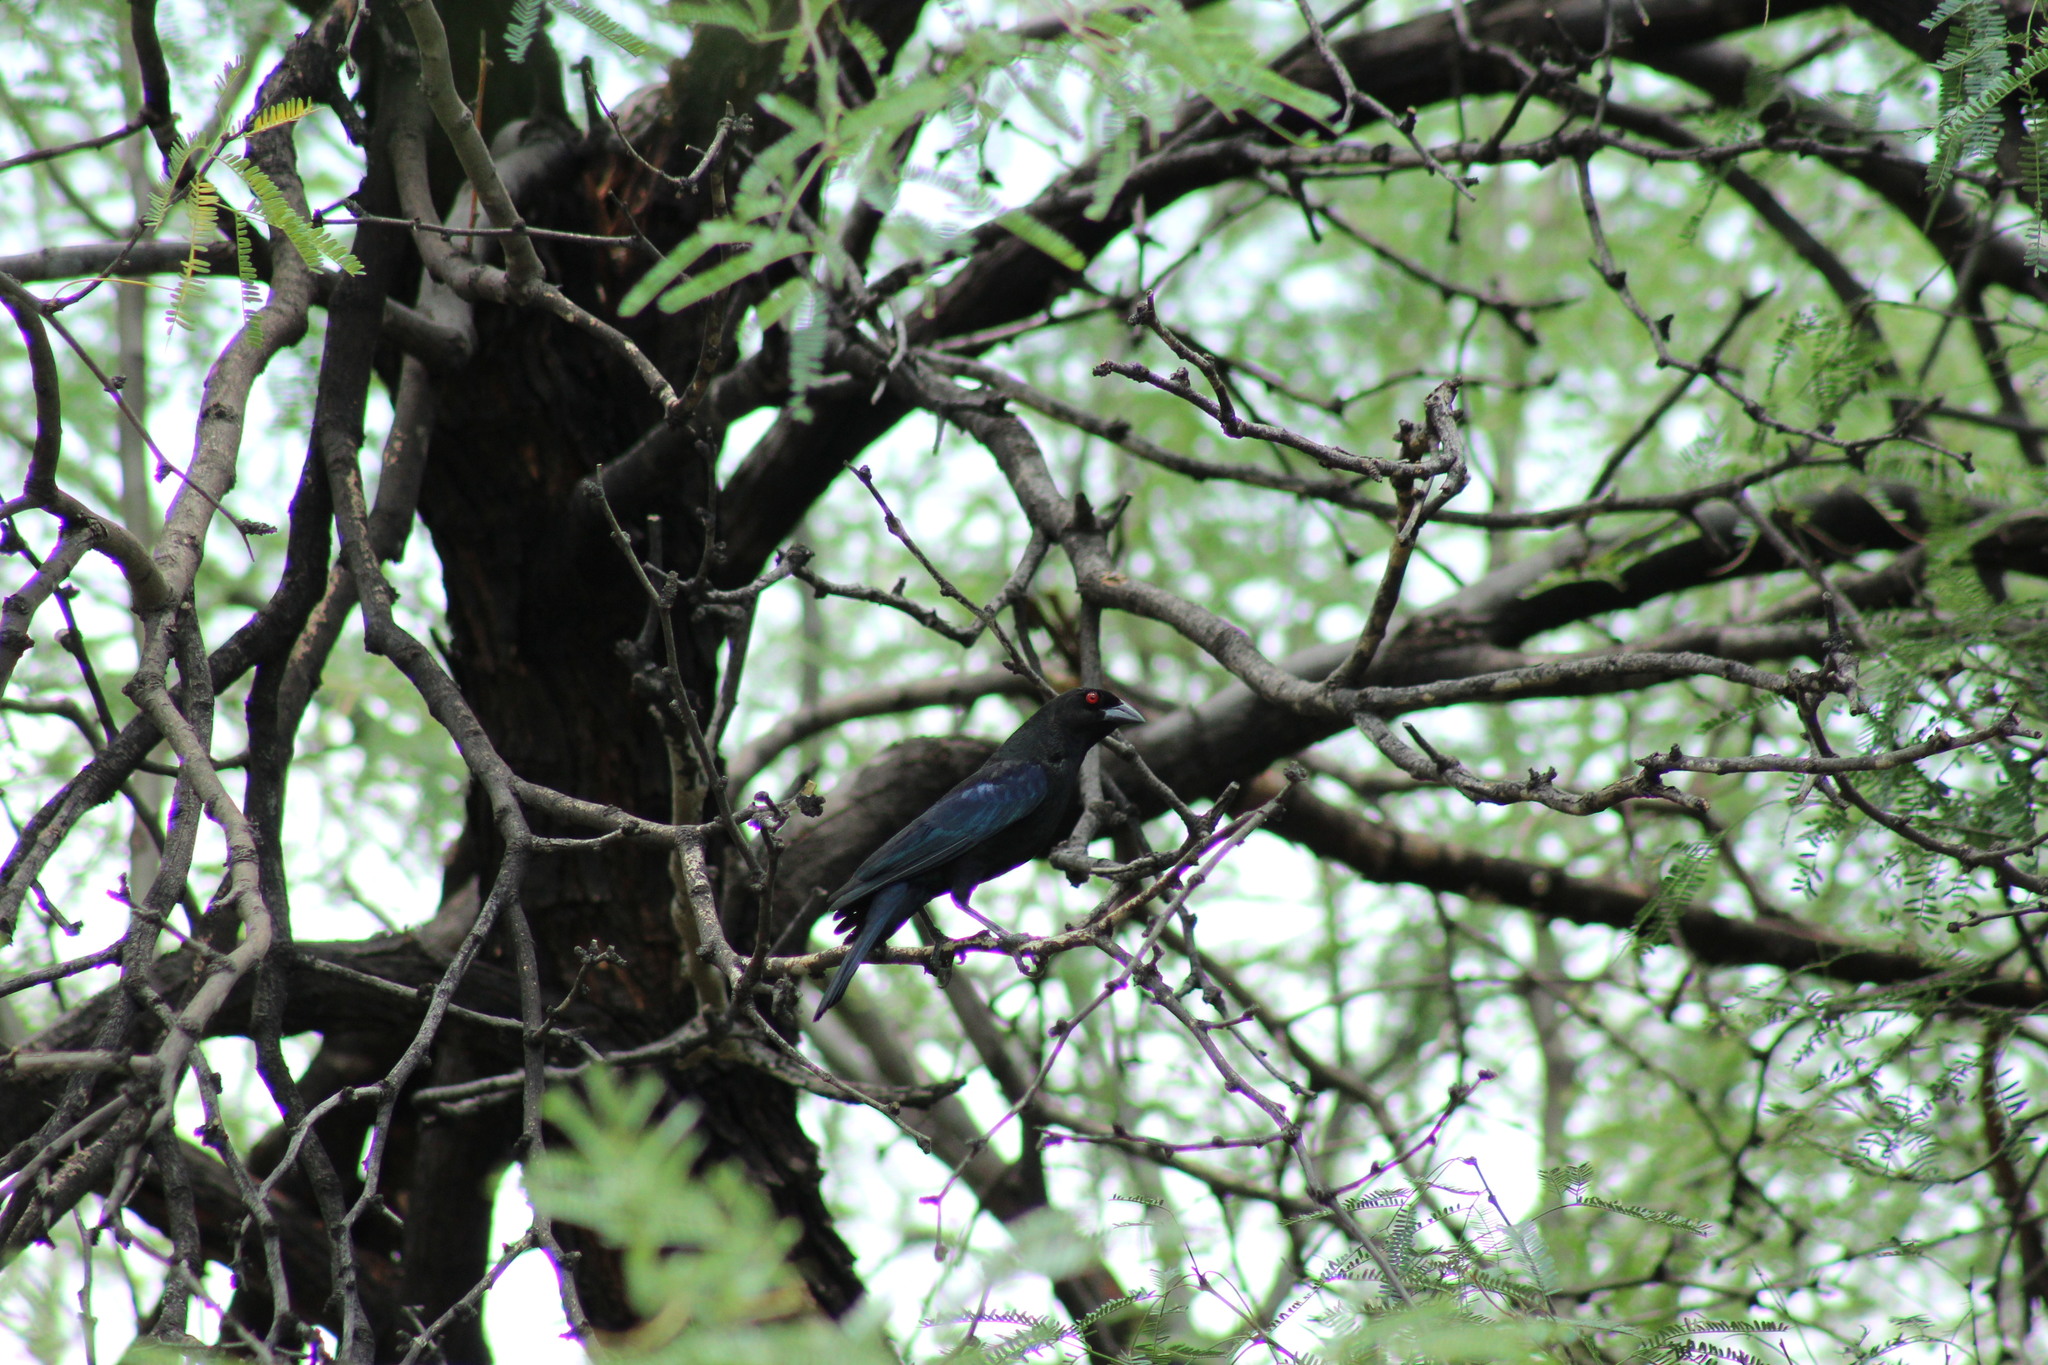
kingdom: Animalia
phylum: Chordata
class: Aves
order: Passeriformes
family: Icteridae
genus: Molothrus
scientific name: Molothrus aeneus
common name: Bronzed cowbird
